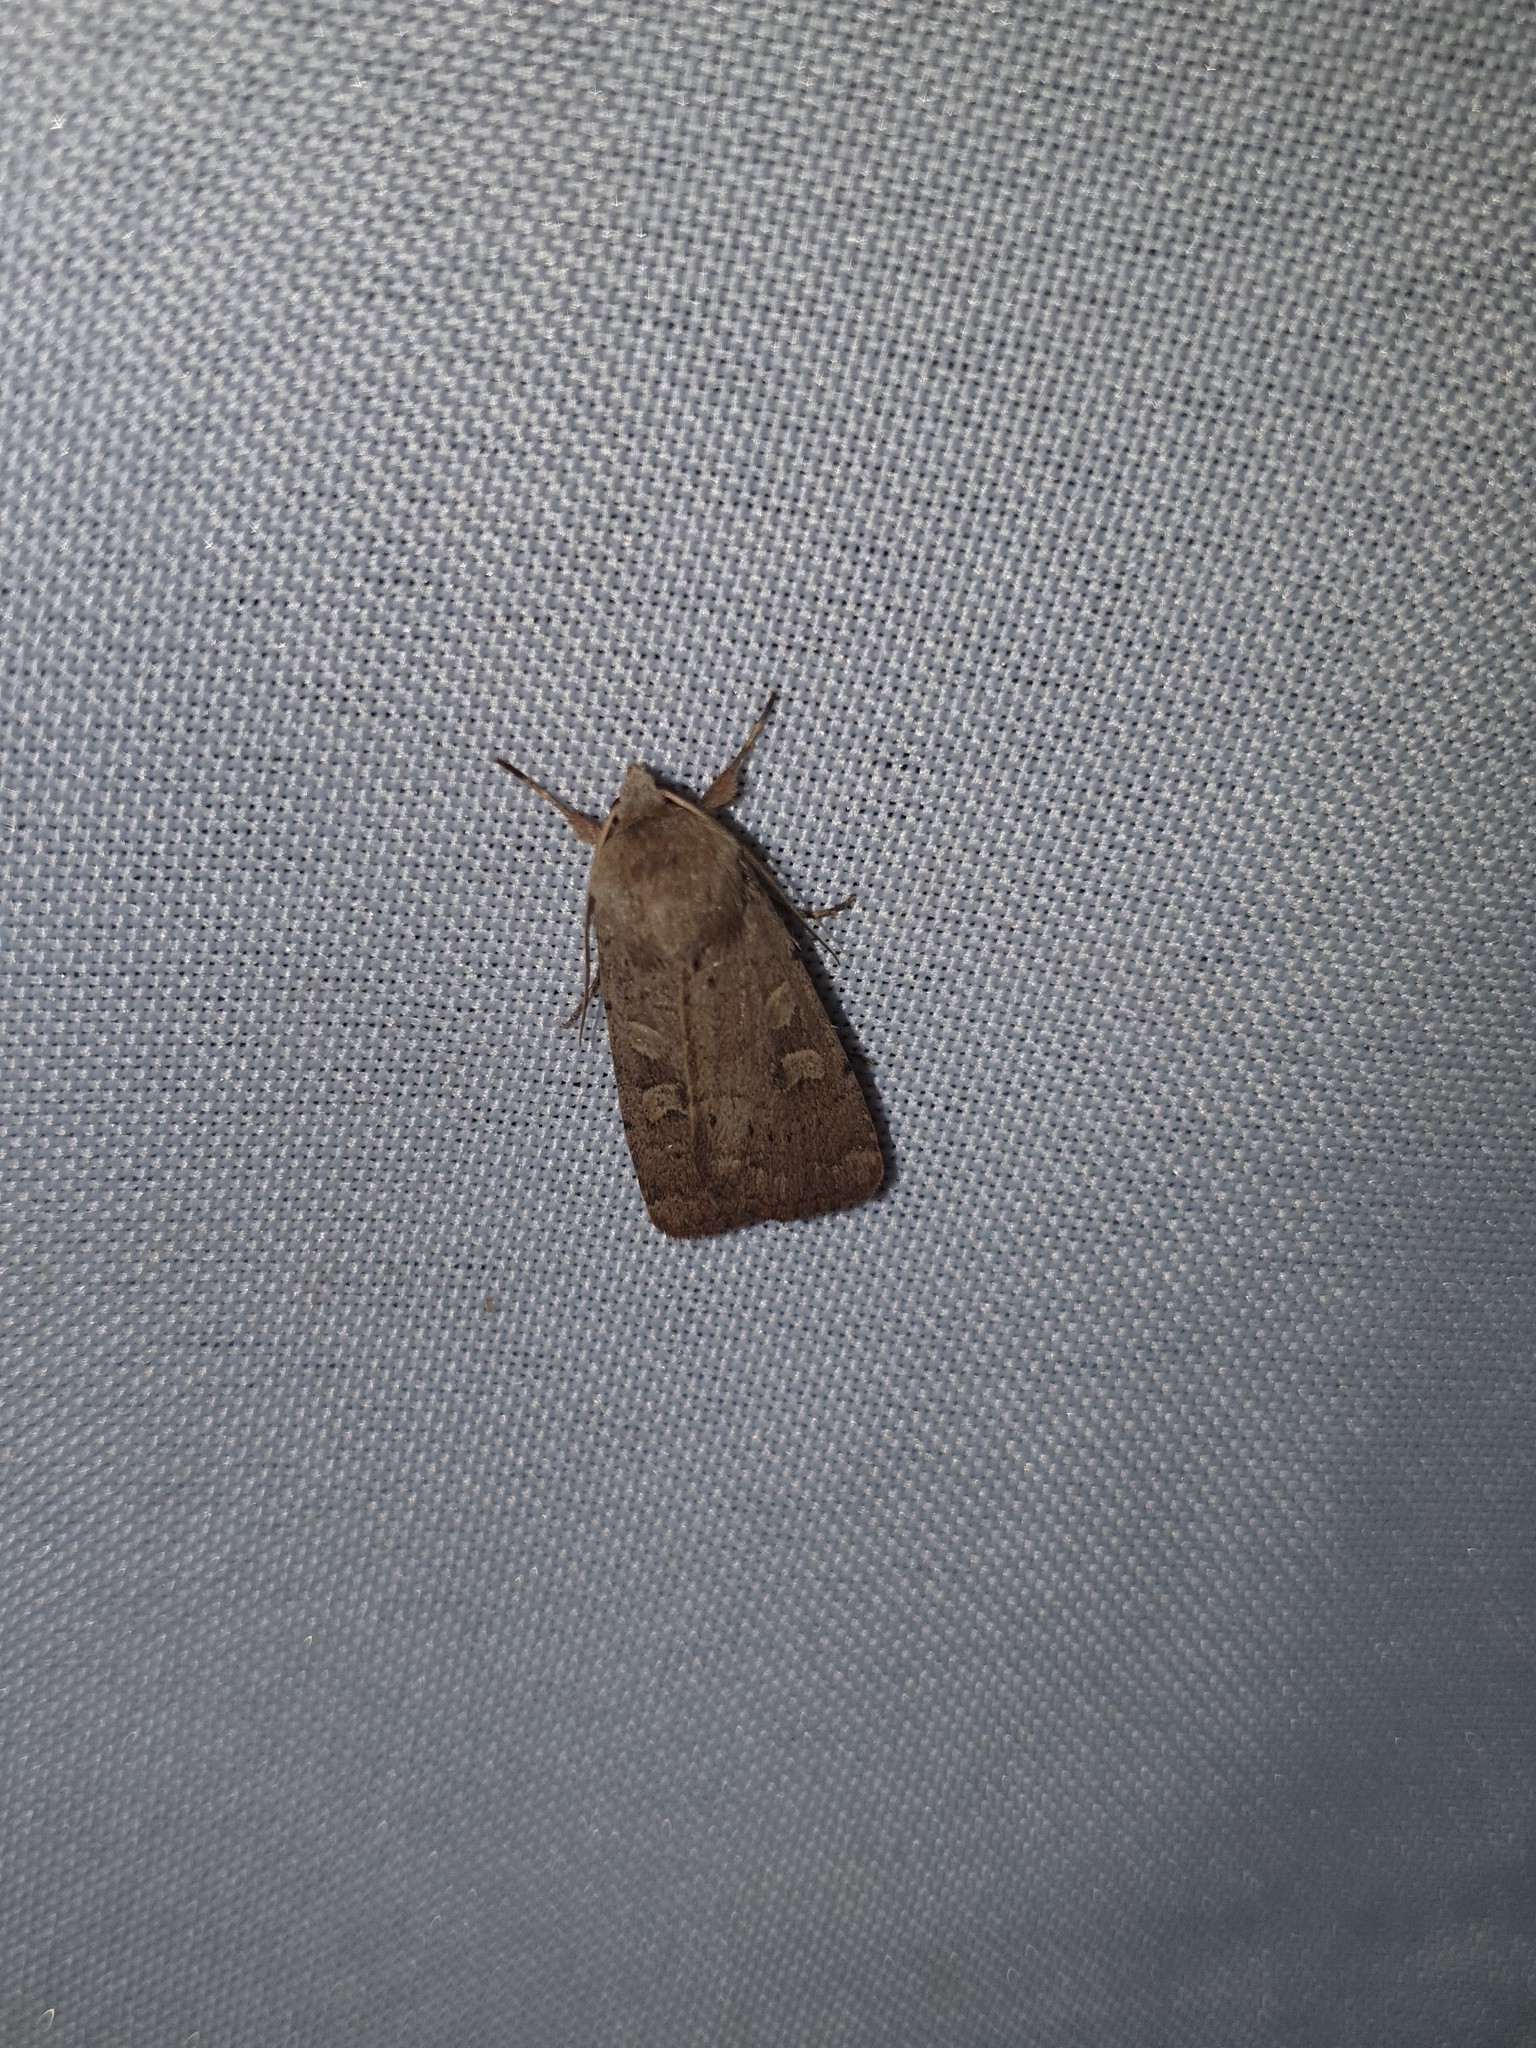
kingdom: Animalia
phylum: Arthropoda
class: Insecta
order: Lepidoptera
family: Noctuidae
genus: Xestia
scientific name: Xestia xanthographa
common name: Square-spot rustic
